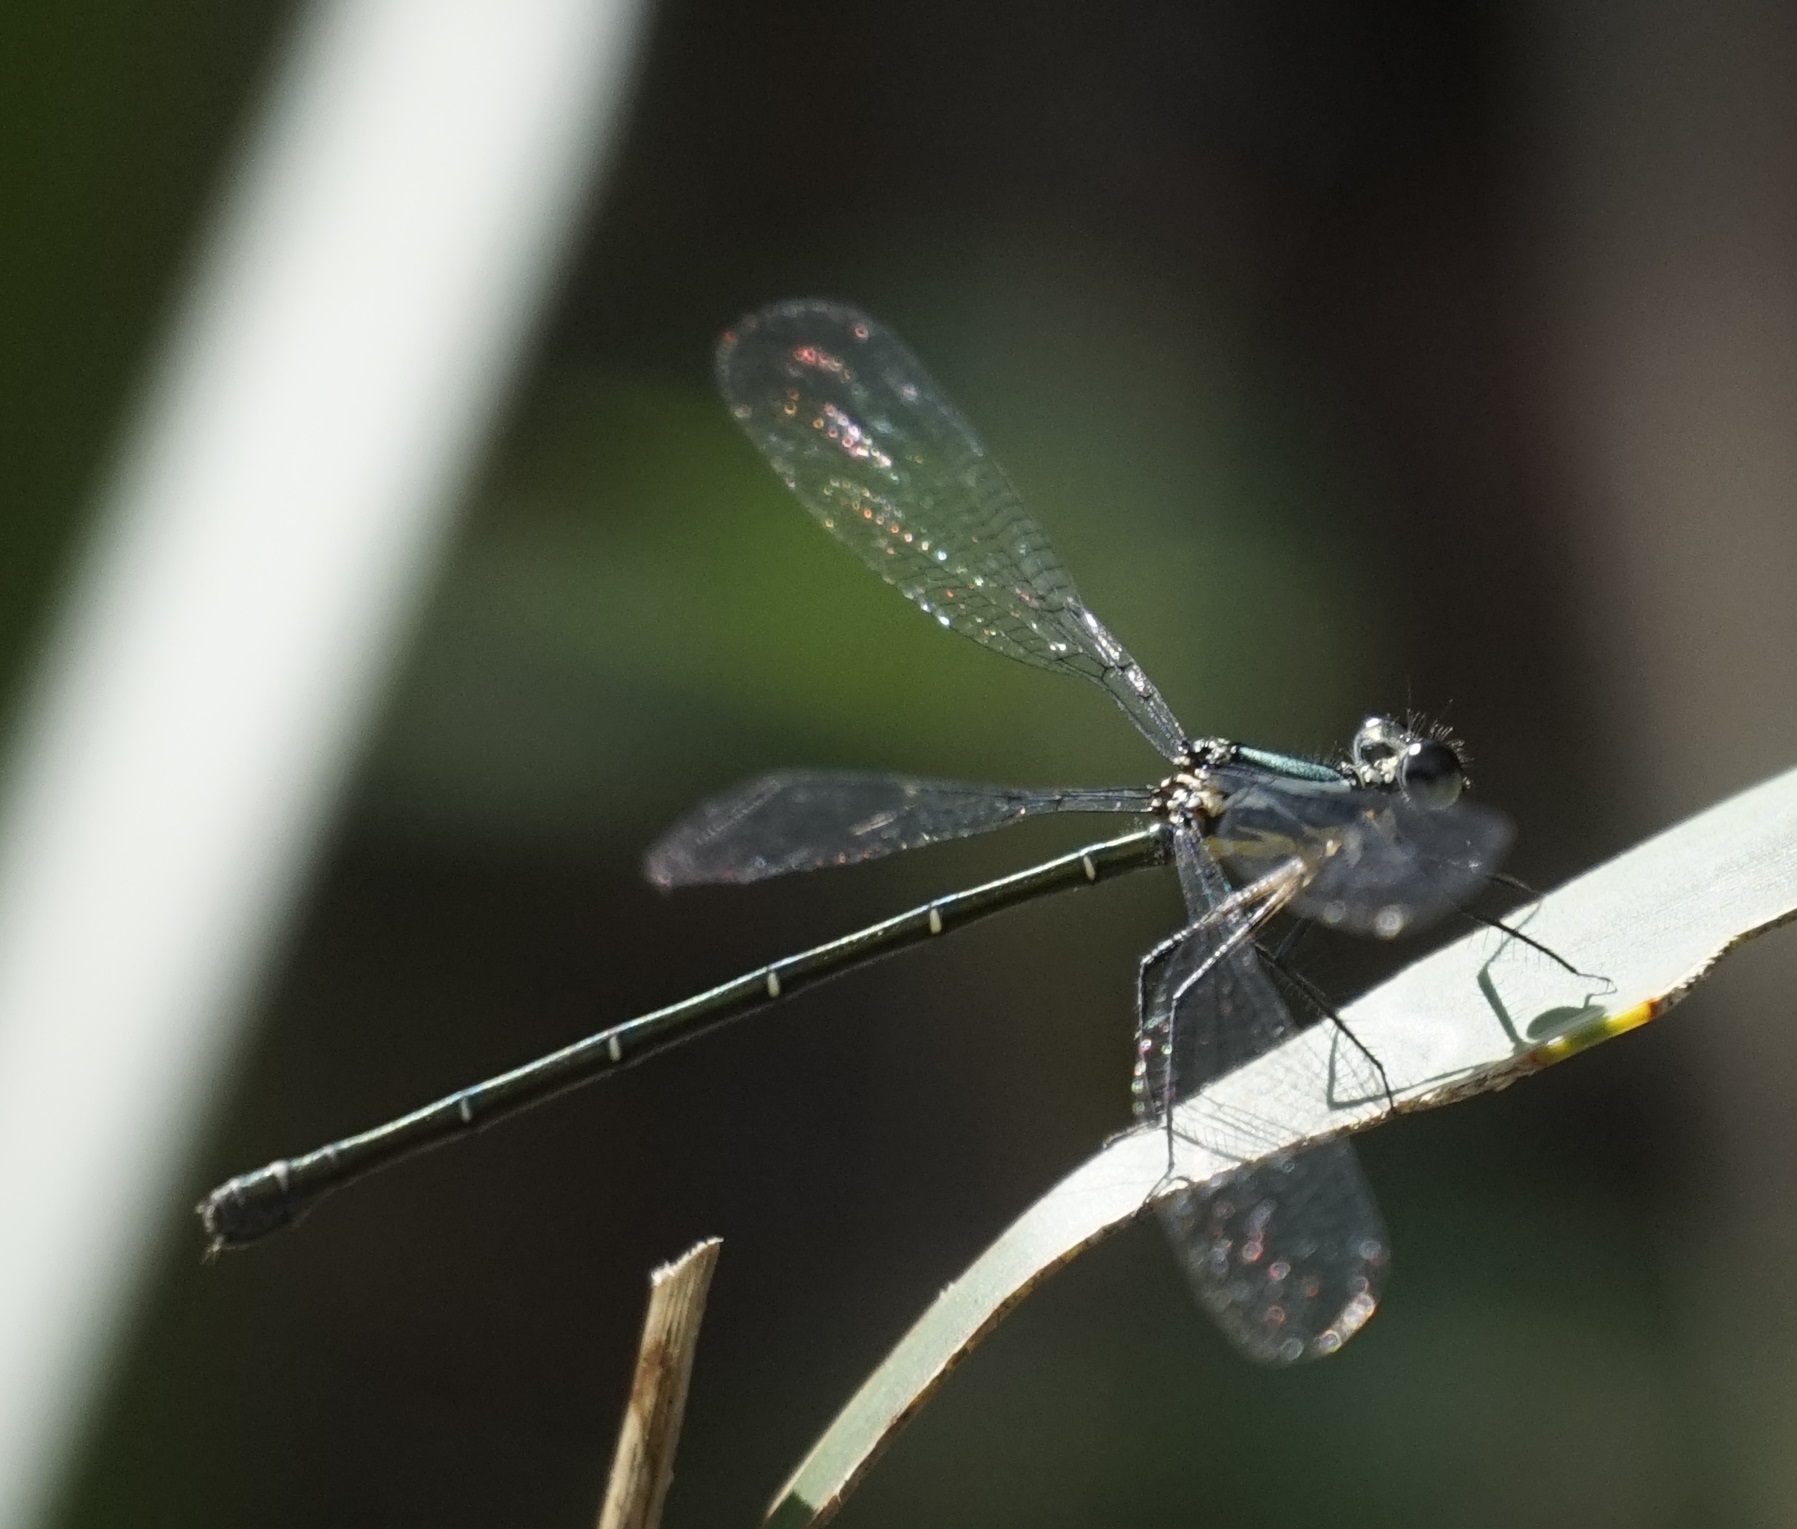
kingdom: Animalia
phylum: Arthropoda
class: Insecta
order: Odonata
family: Argiolestidae
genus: Austroargiolestes
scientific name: Austroargiolestes icteromelas
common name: Common flatwing
